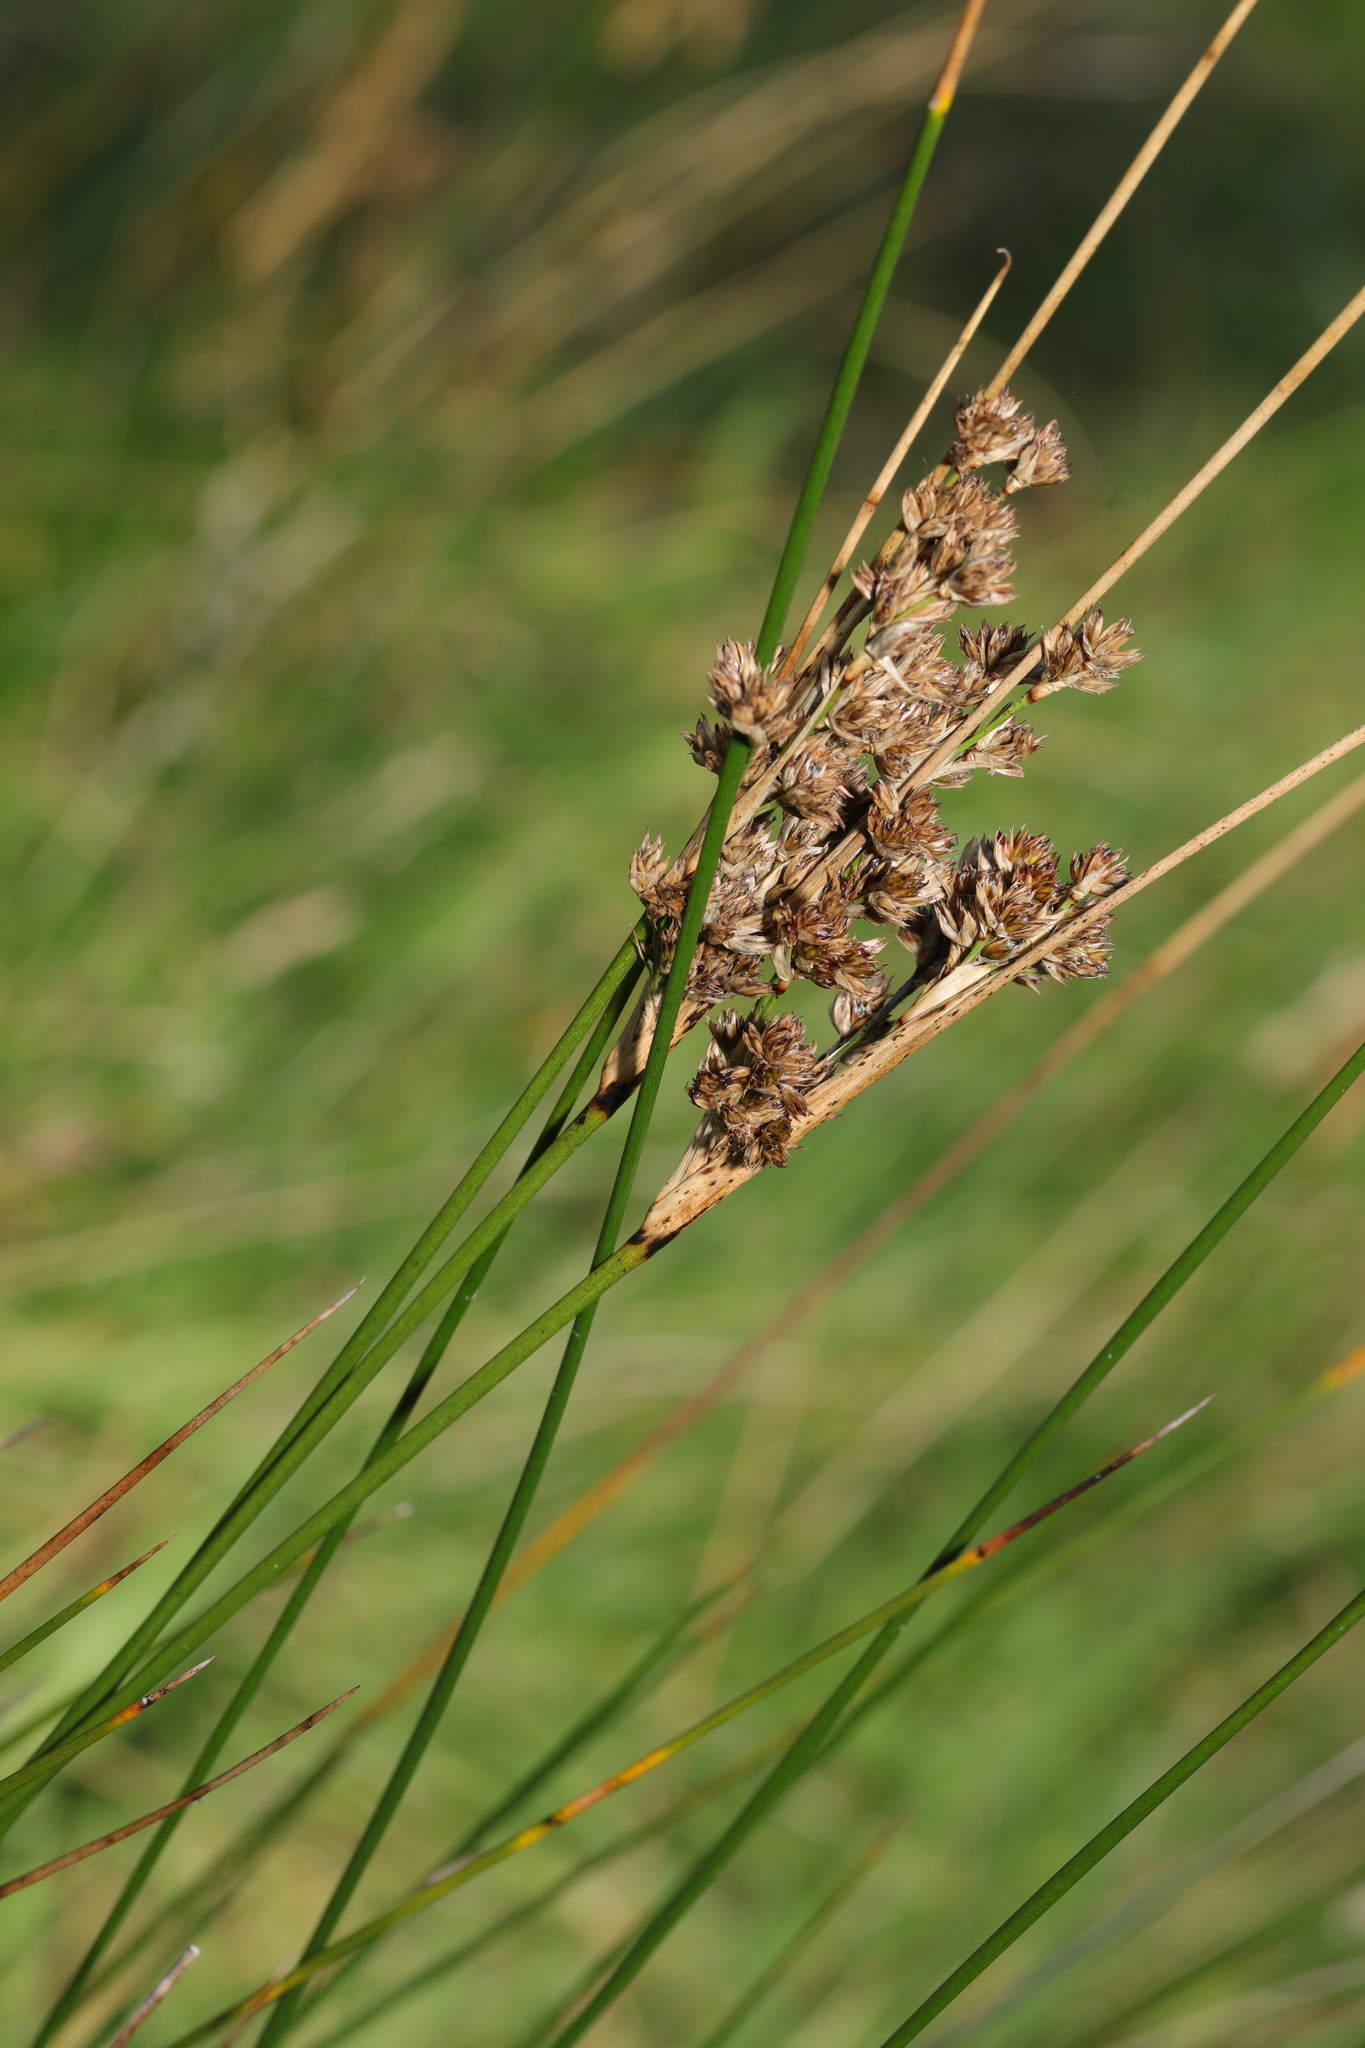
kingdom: Plantae
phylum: Tracheophyta
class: Liliopsida
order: Poales
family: Juncaceae
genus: Juncus
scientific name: Juncus maritimus
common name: Sea rush
